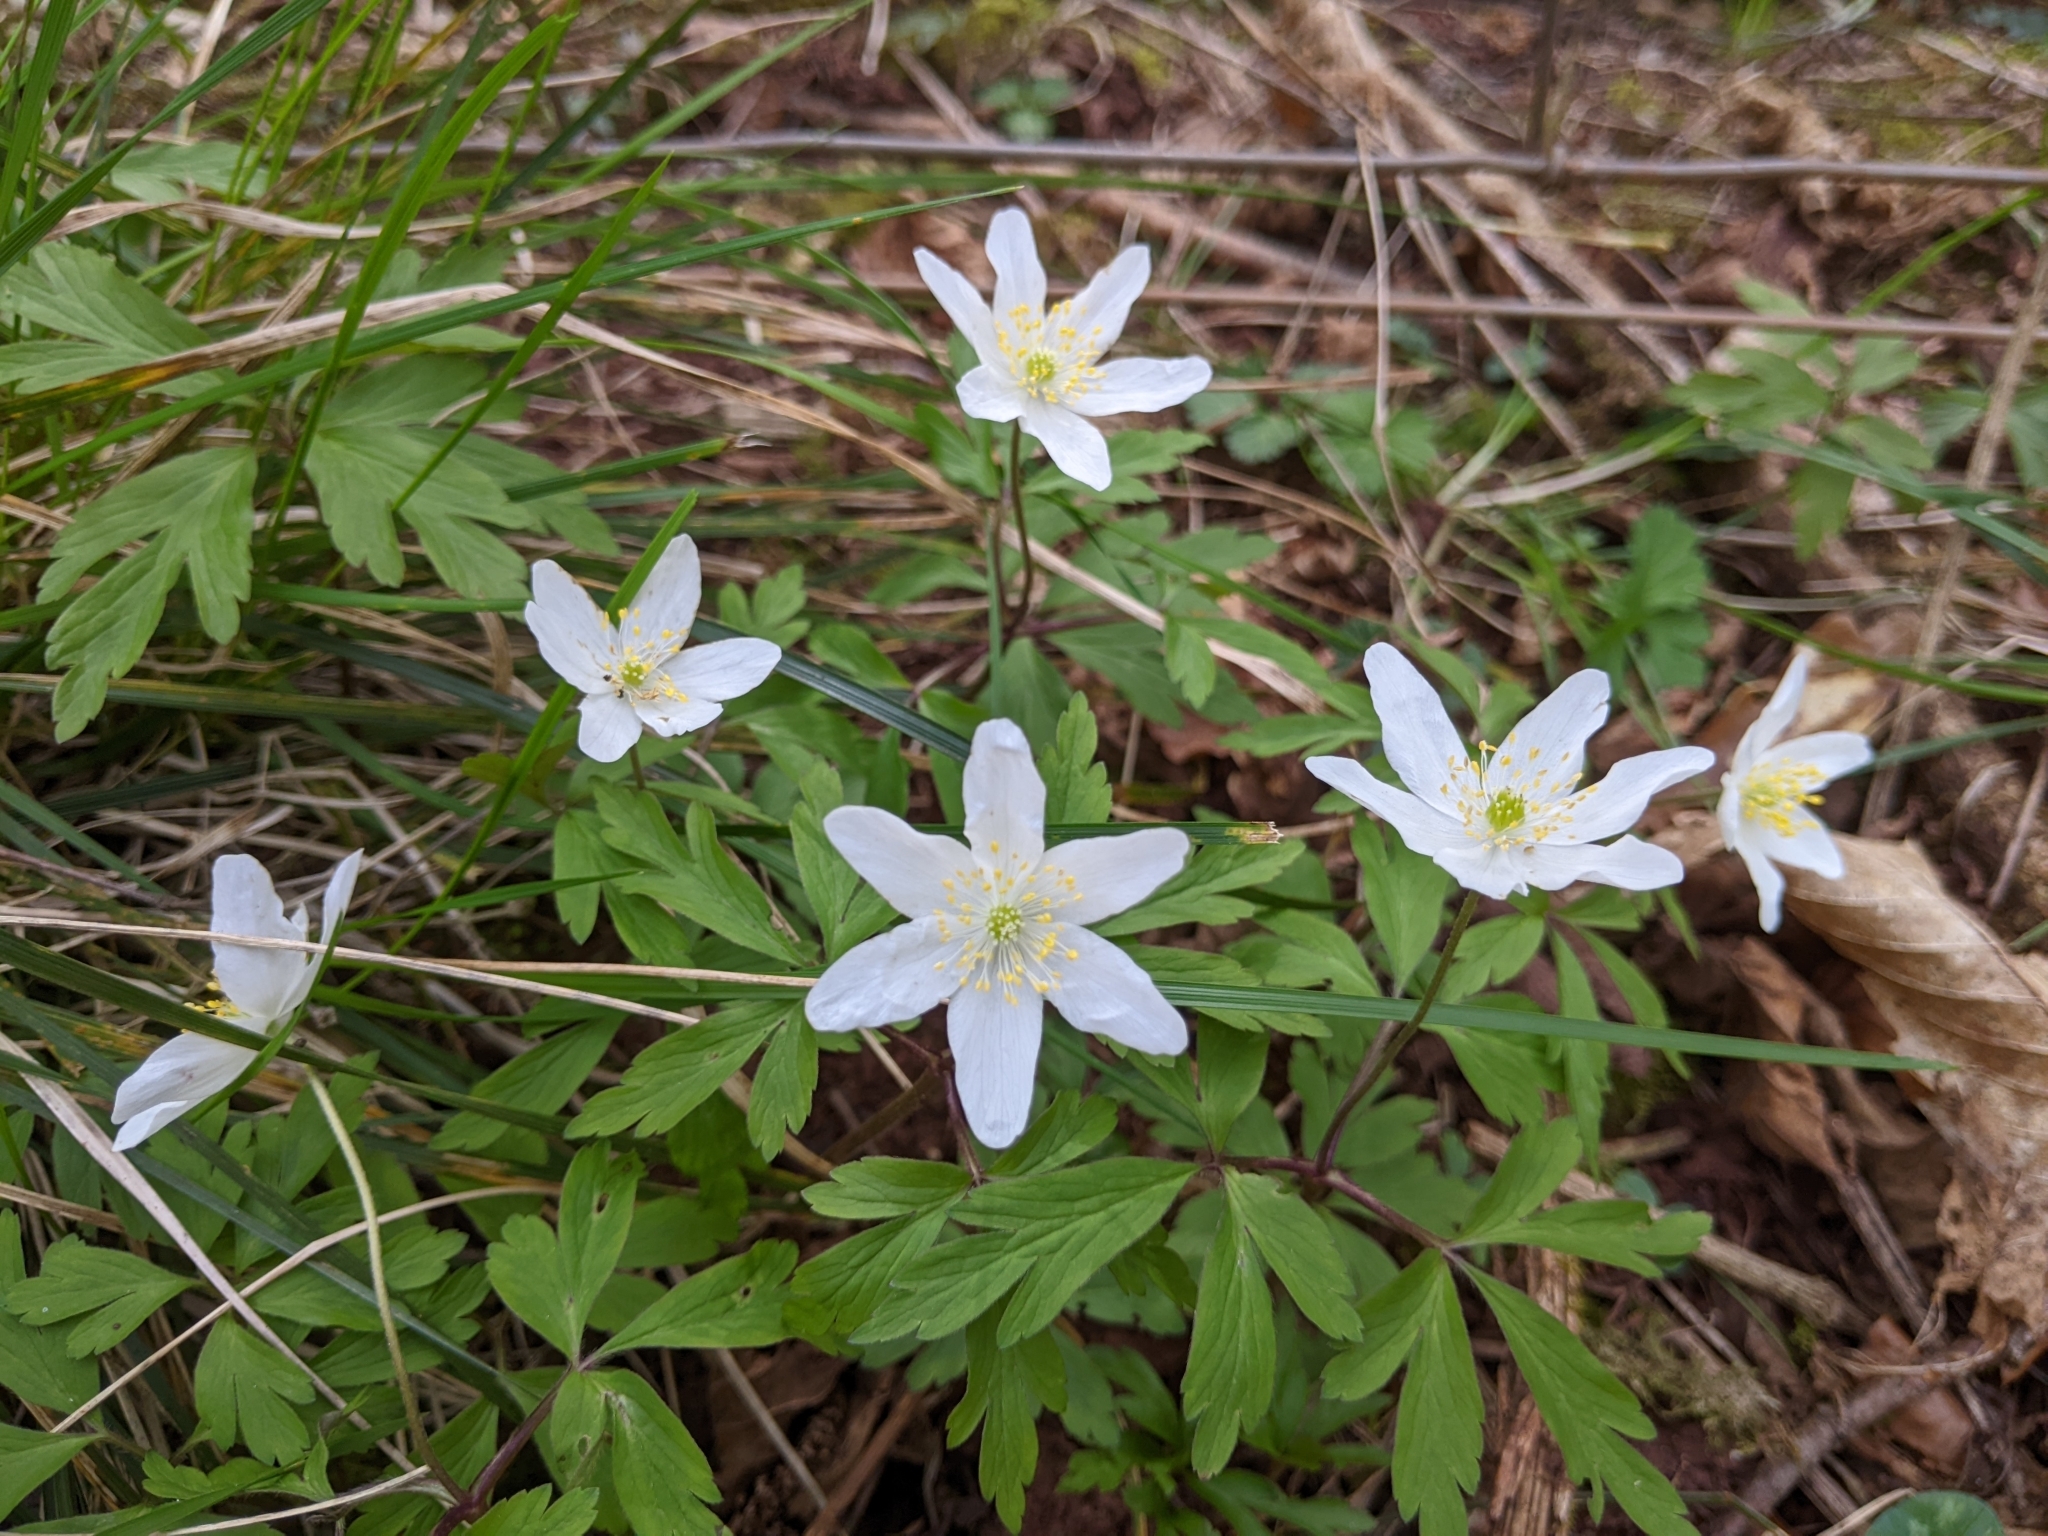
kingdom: Plantae
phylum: Tracheophyta
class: Magnoliopsida
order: Ranunculales
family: Ranunculaceae
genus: Anemone
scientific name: Anemone nemorosa
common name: Wood anemone
